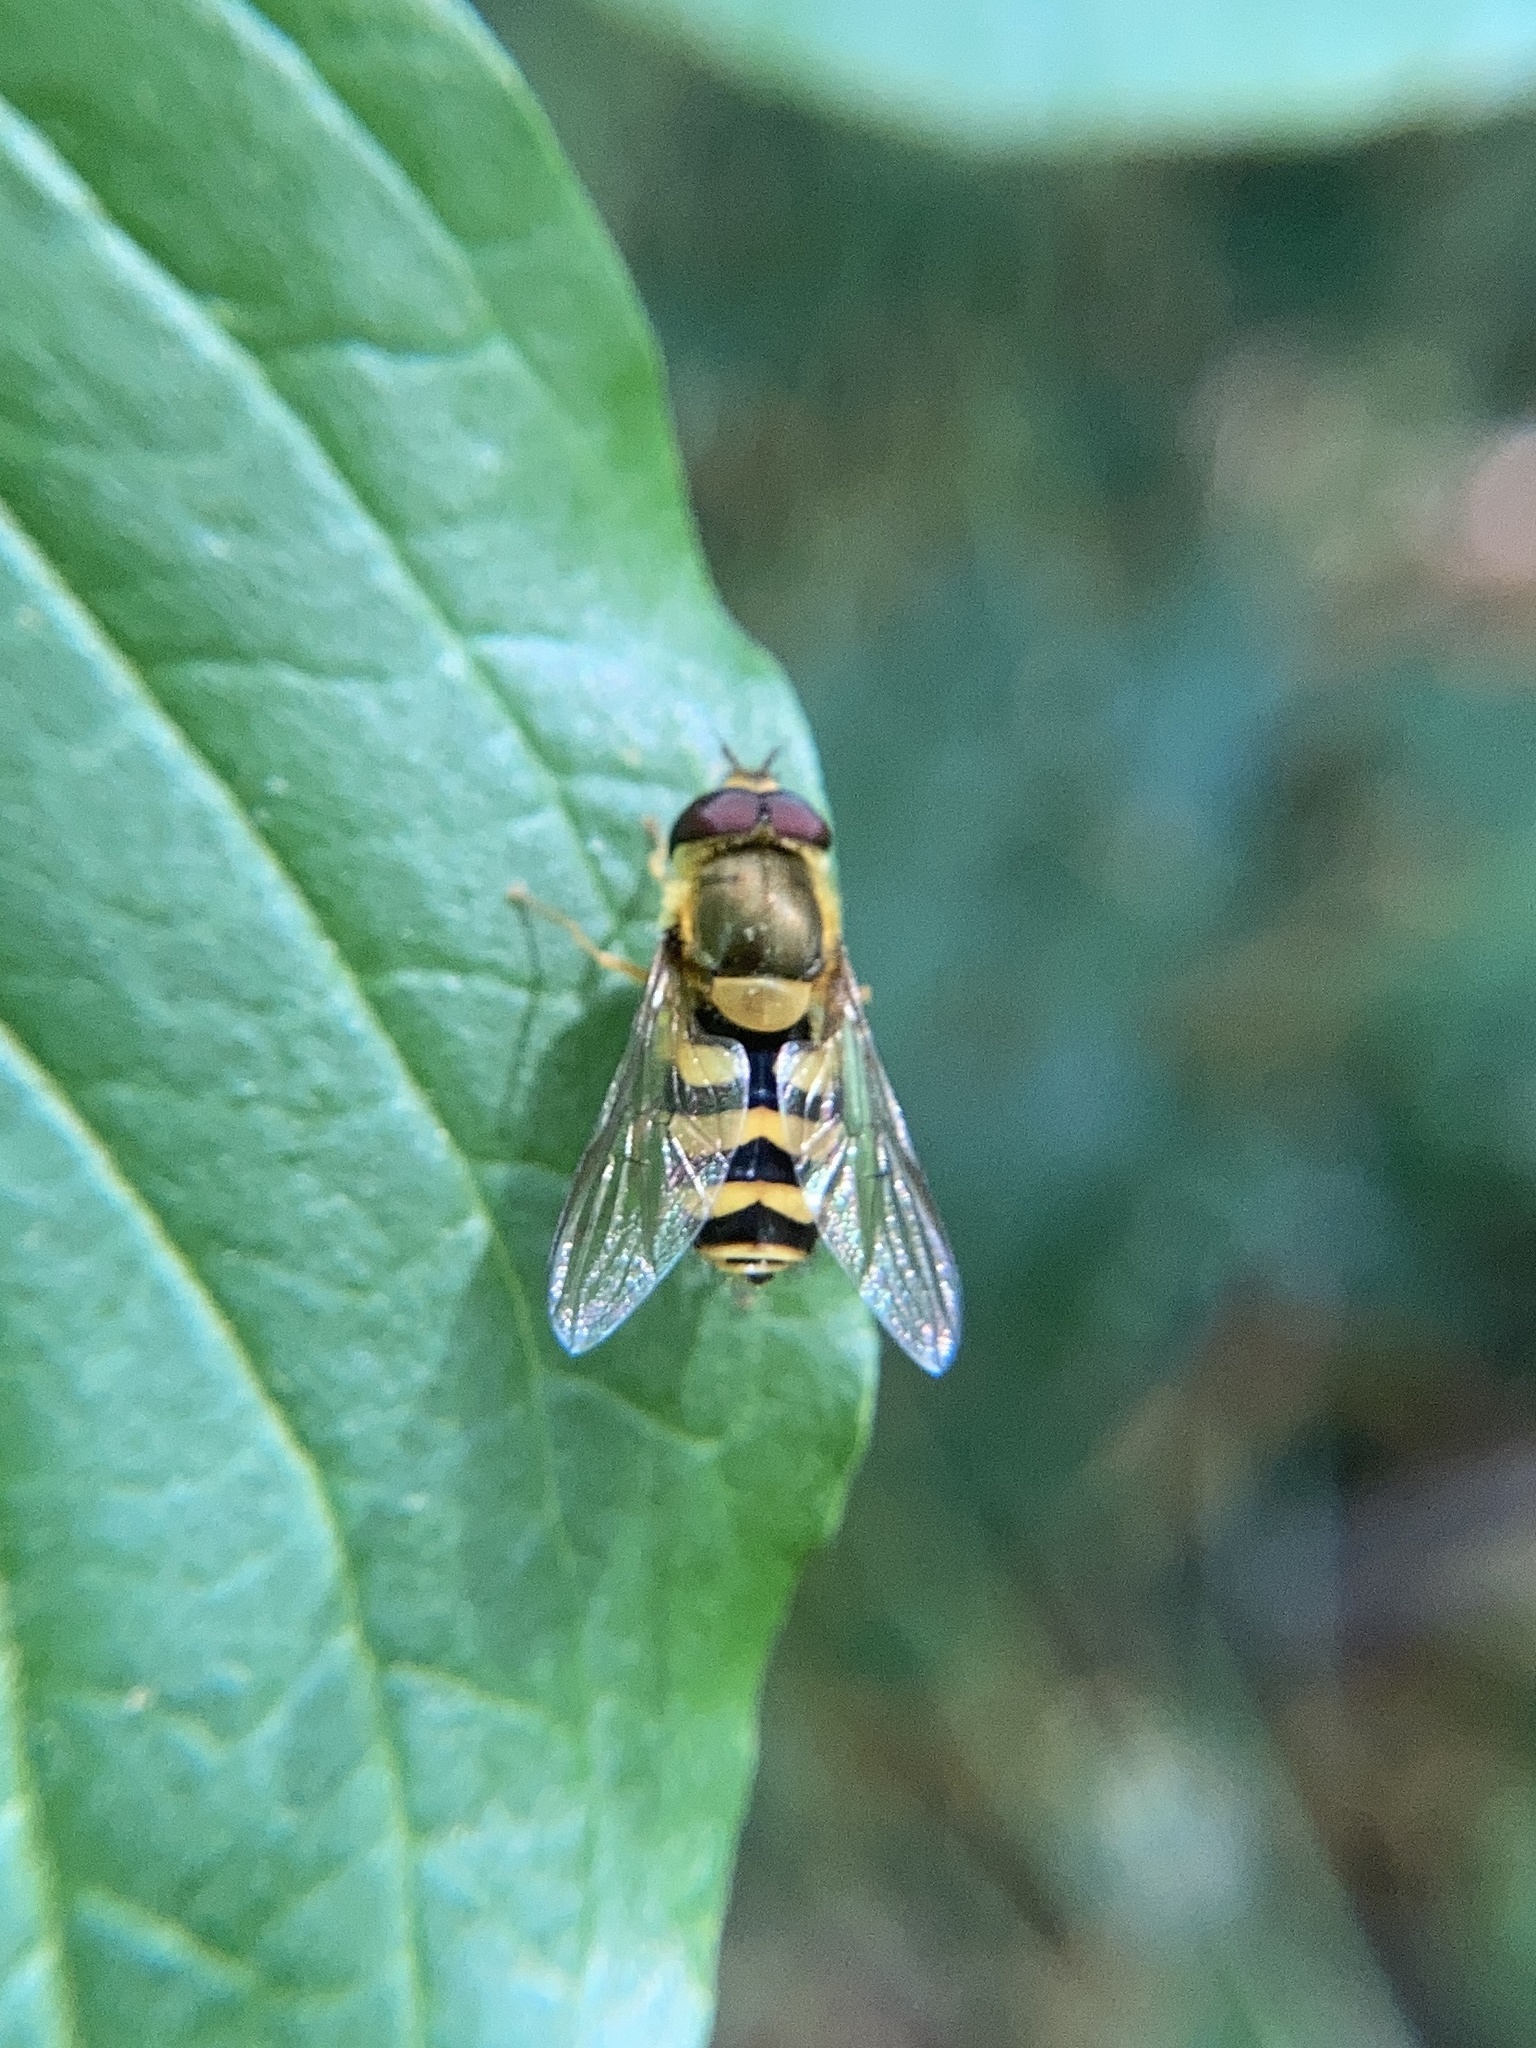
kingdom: Animalia
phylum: Arthropoda
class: Insecta
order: Diptera
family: Syrphidae
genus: Syrphus
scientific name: Syrphus
